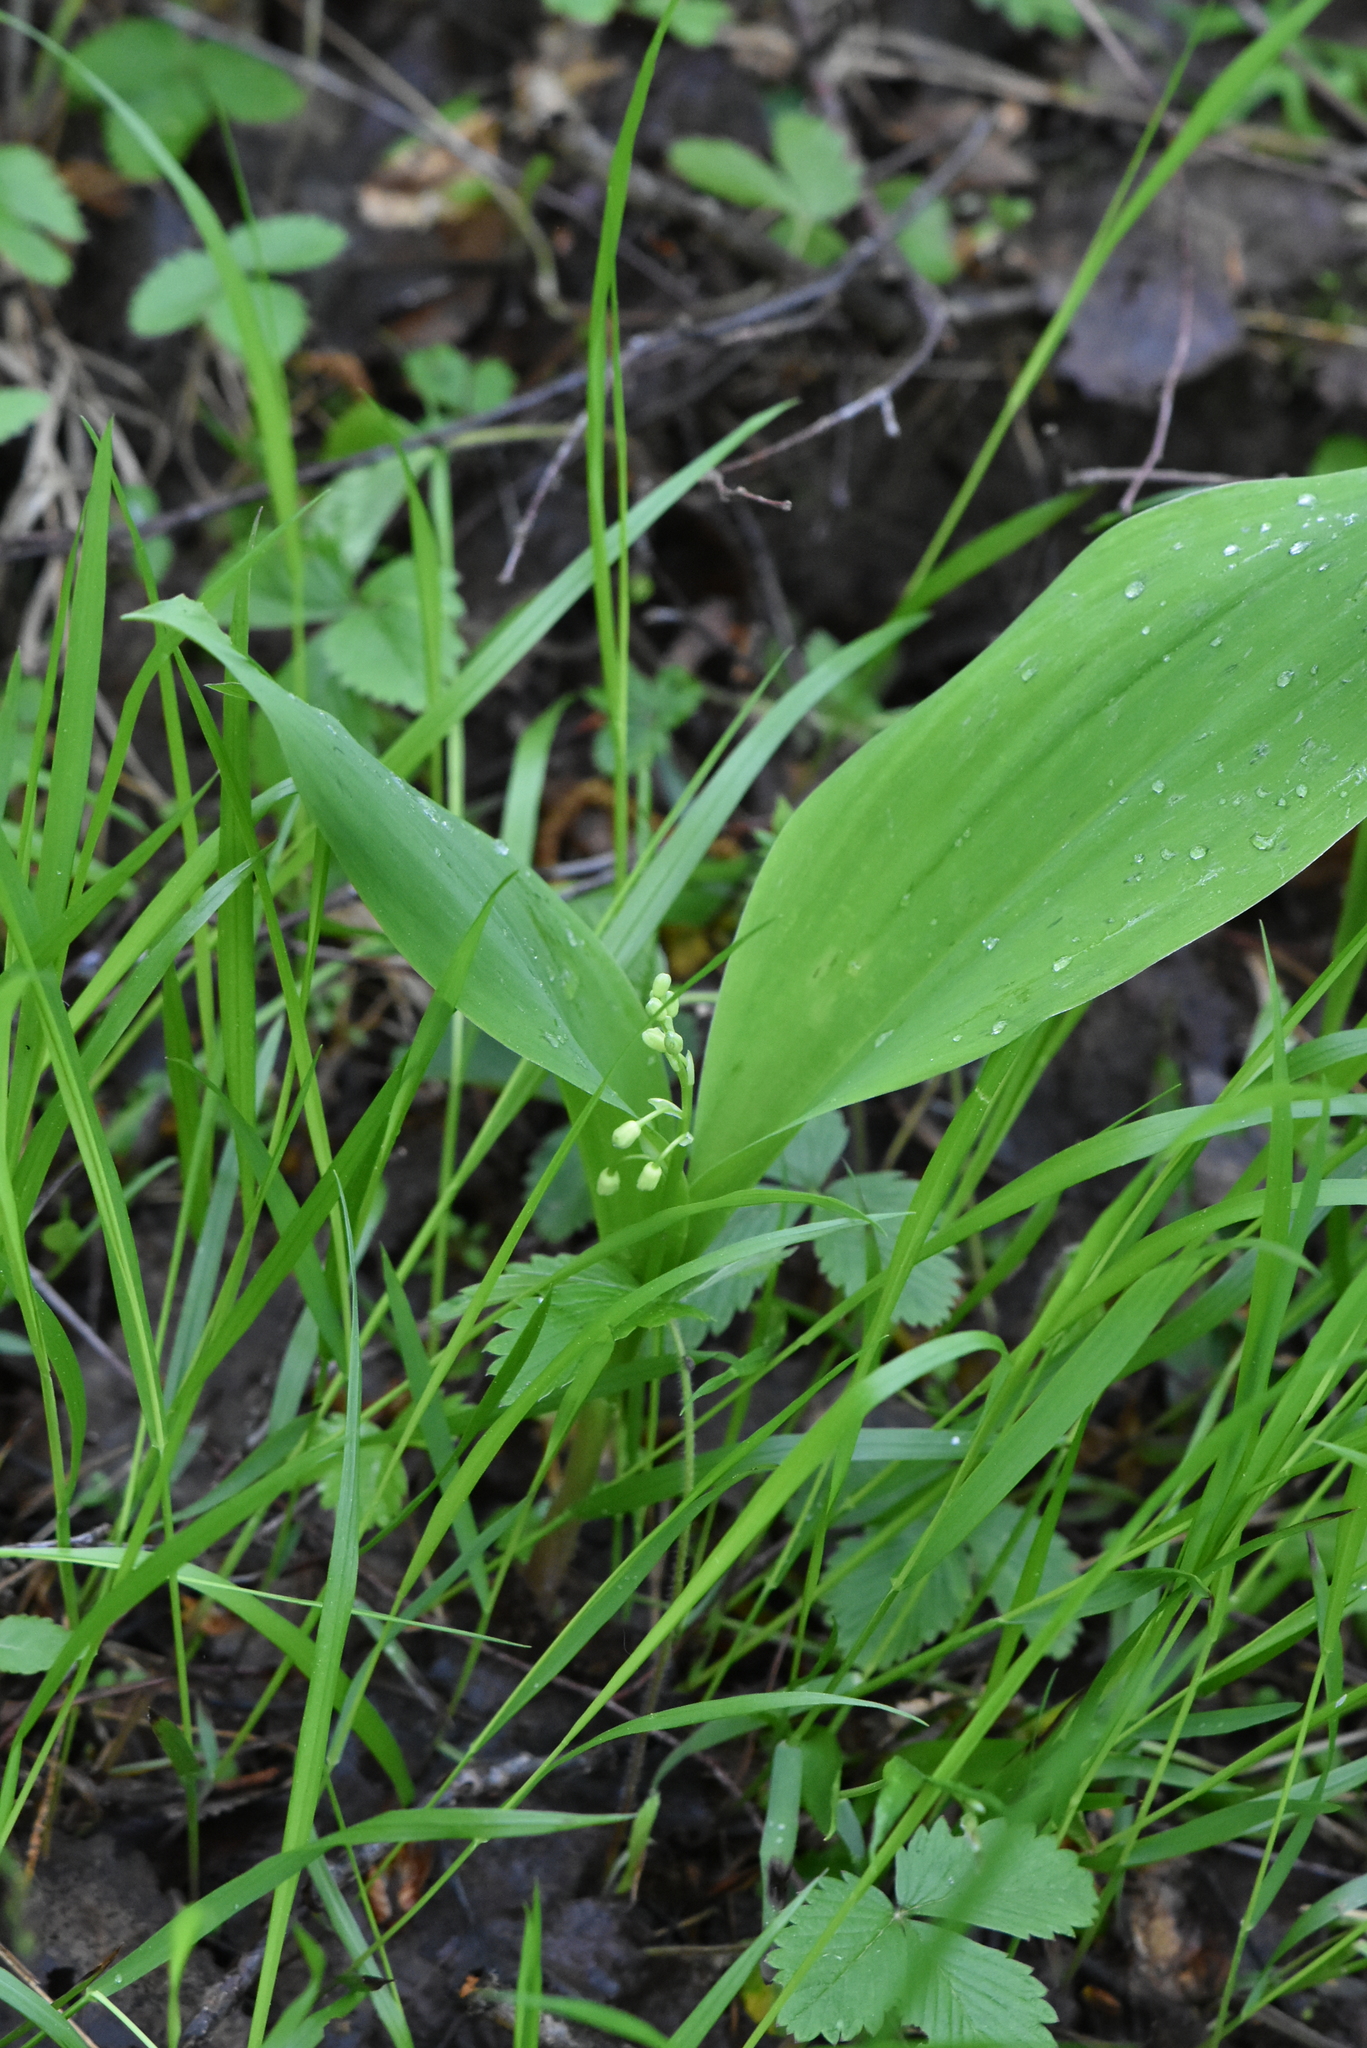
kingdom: Plantae
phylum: Tracheophyta
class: Liliopsida
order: Asparagales
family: Asparagaceae
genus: Convallaria
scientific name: Convallaria majalis
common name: Lily-of-the-valley
